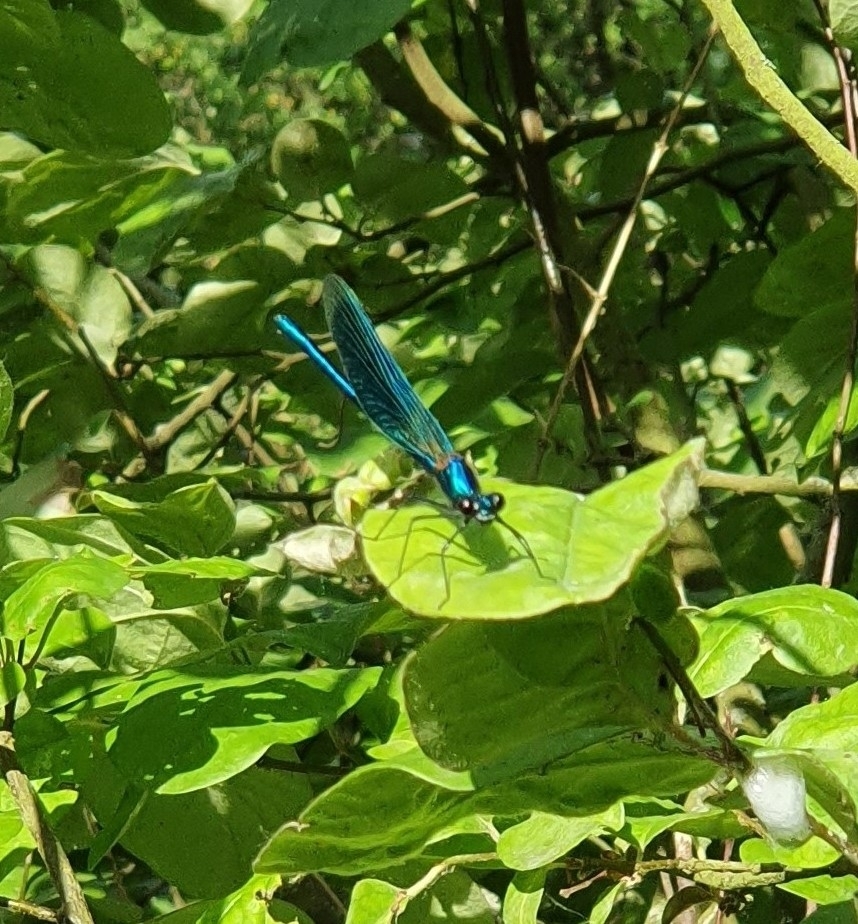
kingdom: Animalia
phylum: Arthropoda
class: Insecta
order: Odonata
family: Calopterygidae
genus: Calopteryx
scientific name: Calopteryx splendens
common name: Banded demoiselle
